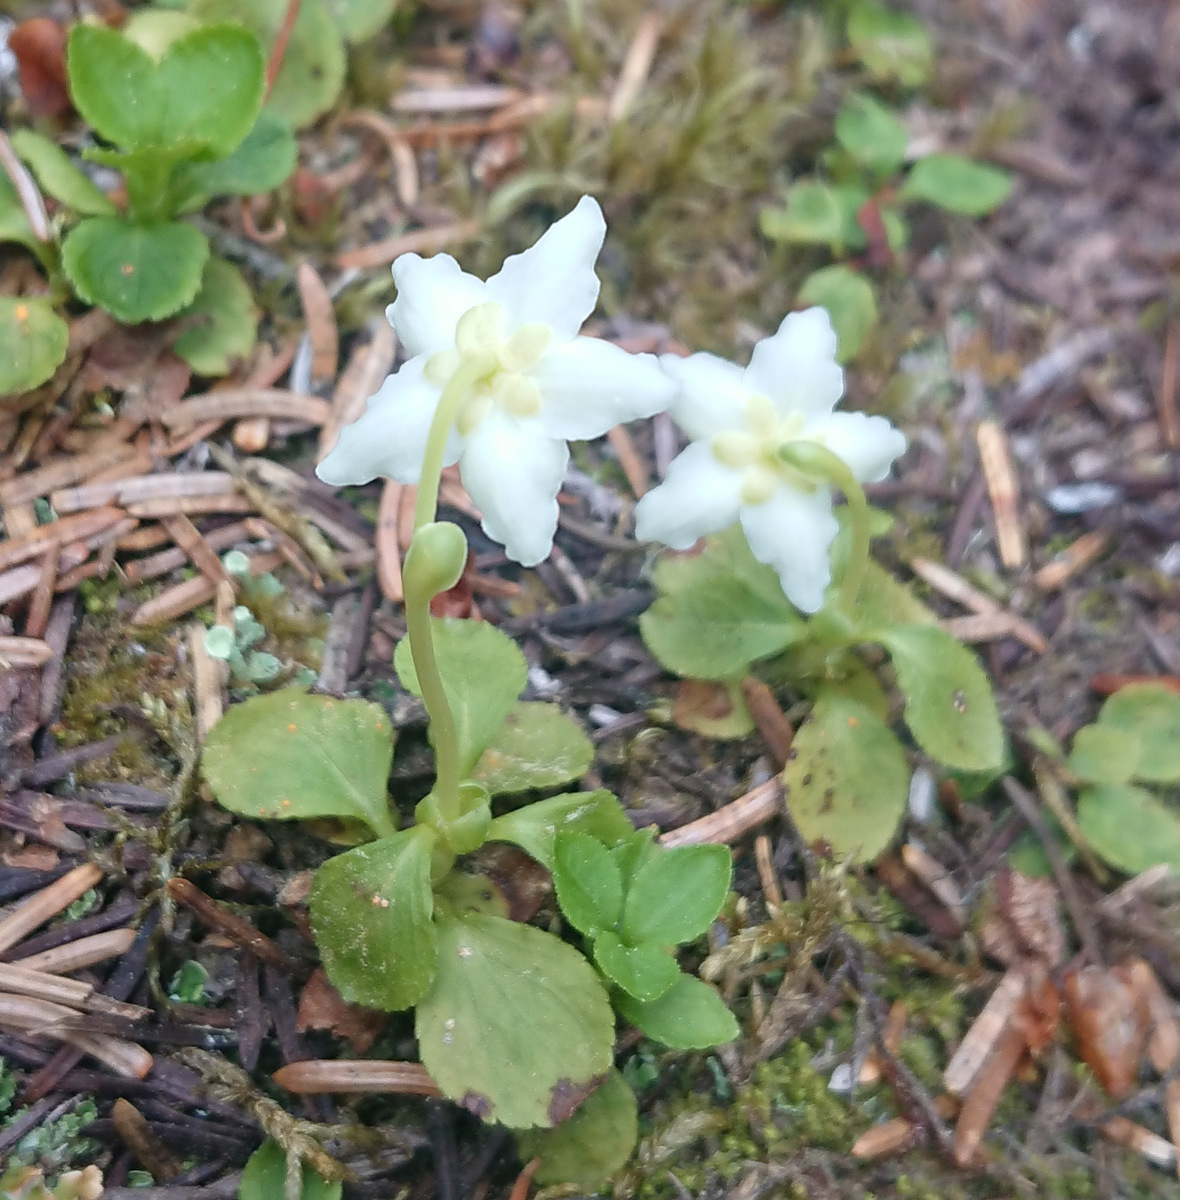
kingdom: Plantae
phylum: Tracheophyta
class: Magnoliopsida
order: Ericales
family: Ericaceae
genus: Moneses
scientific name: Moneses uniflora
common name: One-flowered wintergreen
